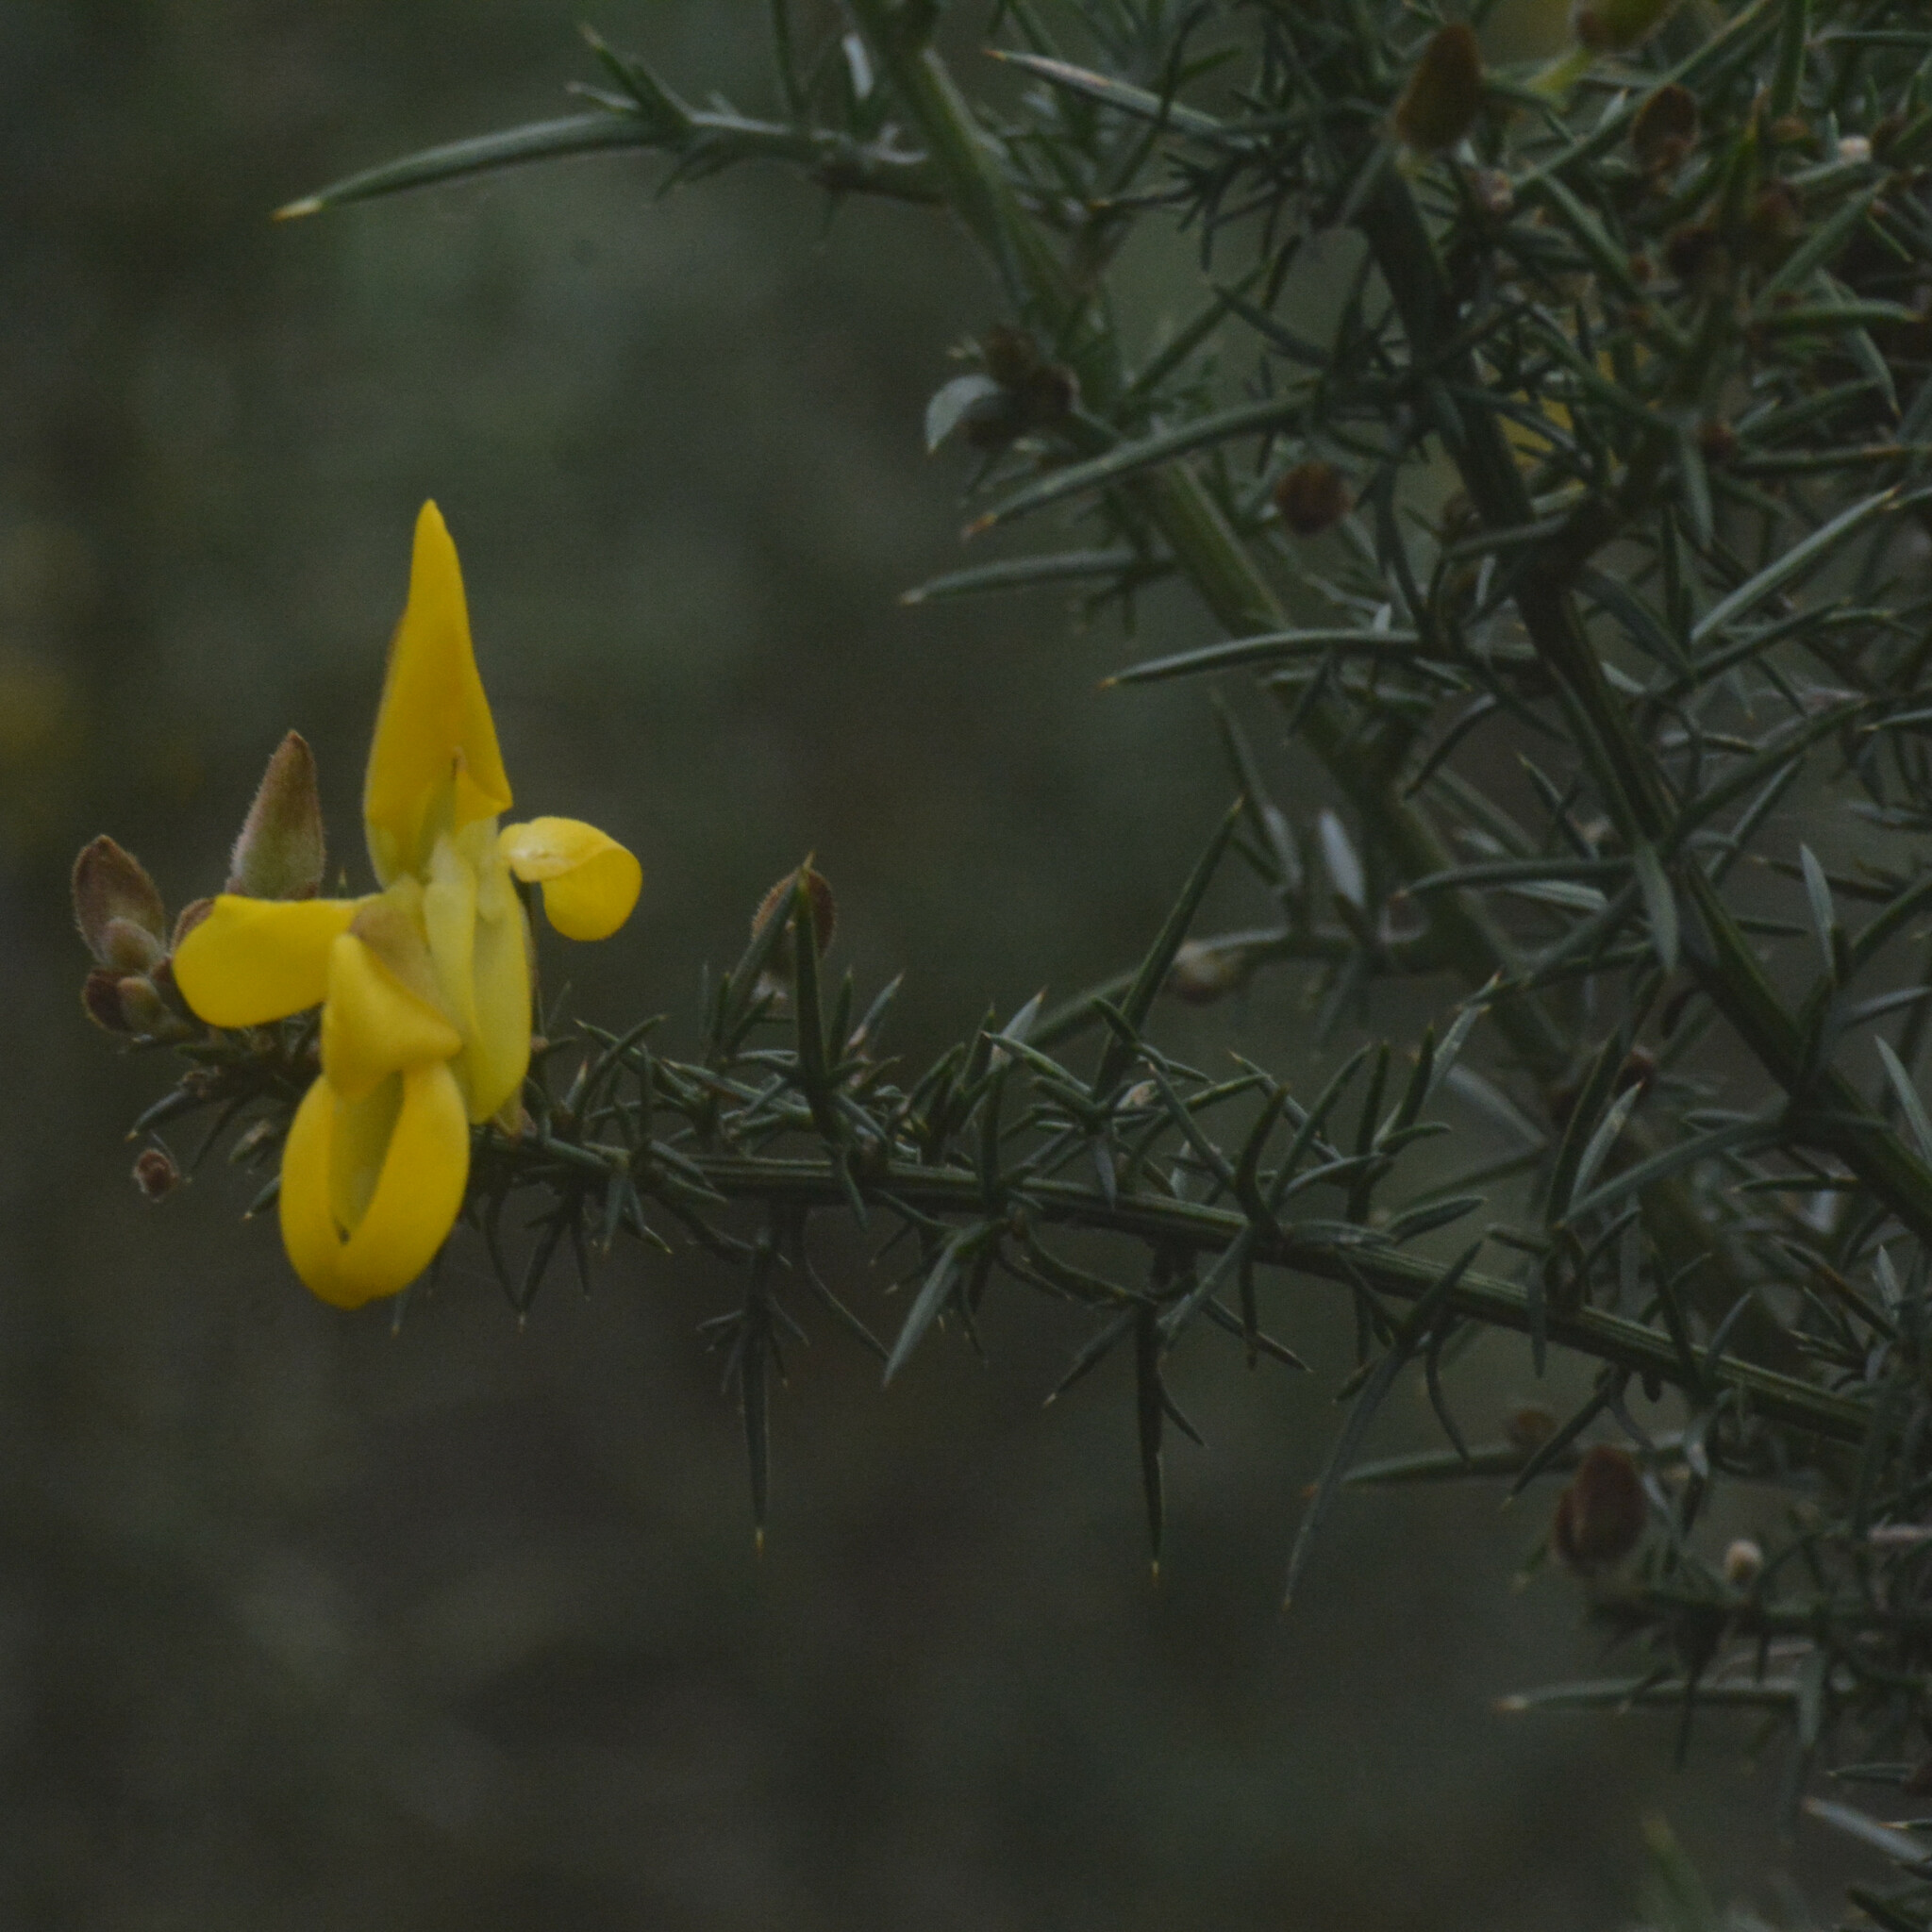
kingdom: Plantae
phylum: Tracheophyta
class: Magnoliopsida
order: Fabales
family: Fabaceae
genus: Ulex
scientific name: Ulex europaeus
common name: Common gorse
